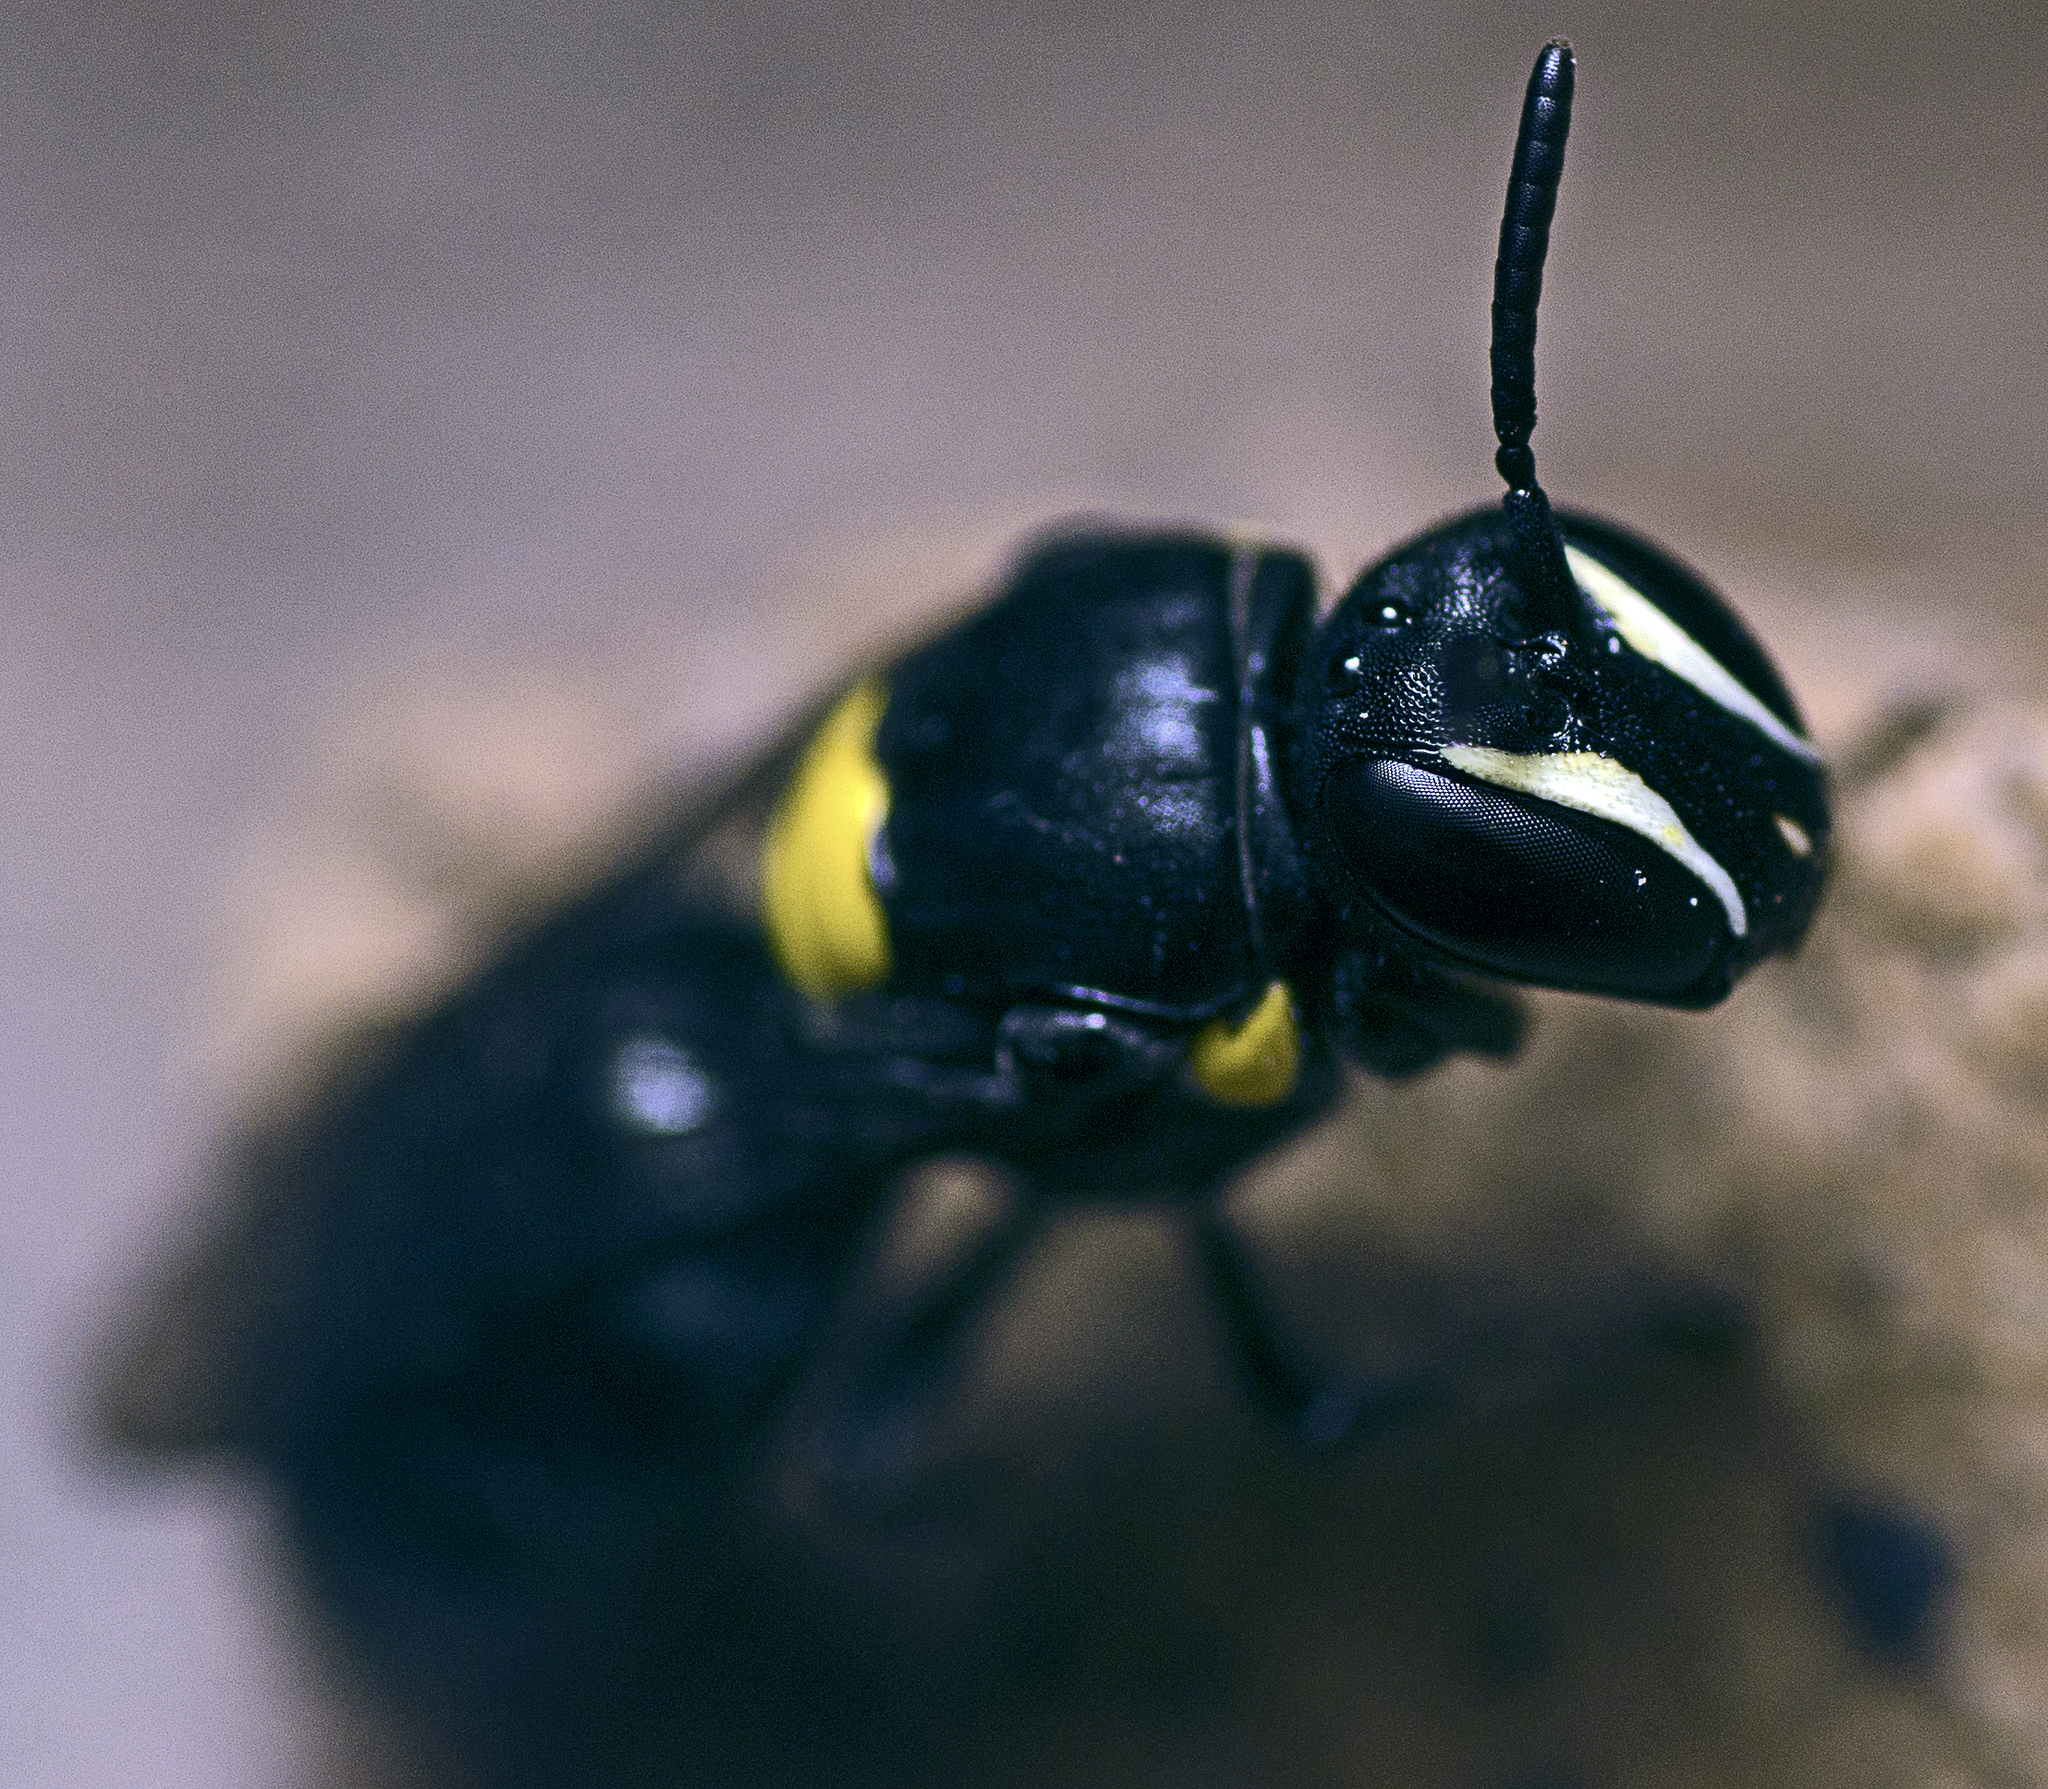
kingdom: Animalia
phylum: Arthropoda
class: Insecta
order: Hymenoptera
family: Colletidae
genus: Hylaeus
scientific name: Hylaeus nubilosus
